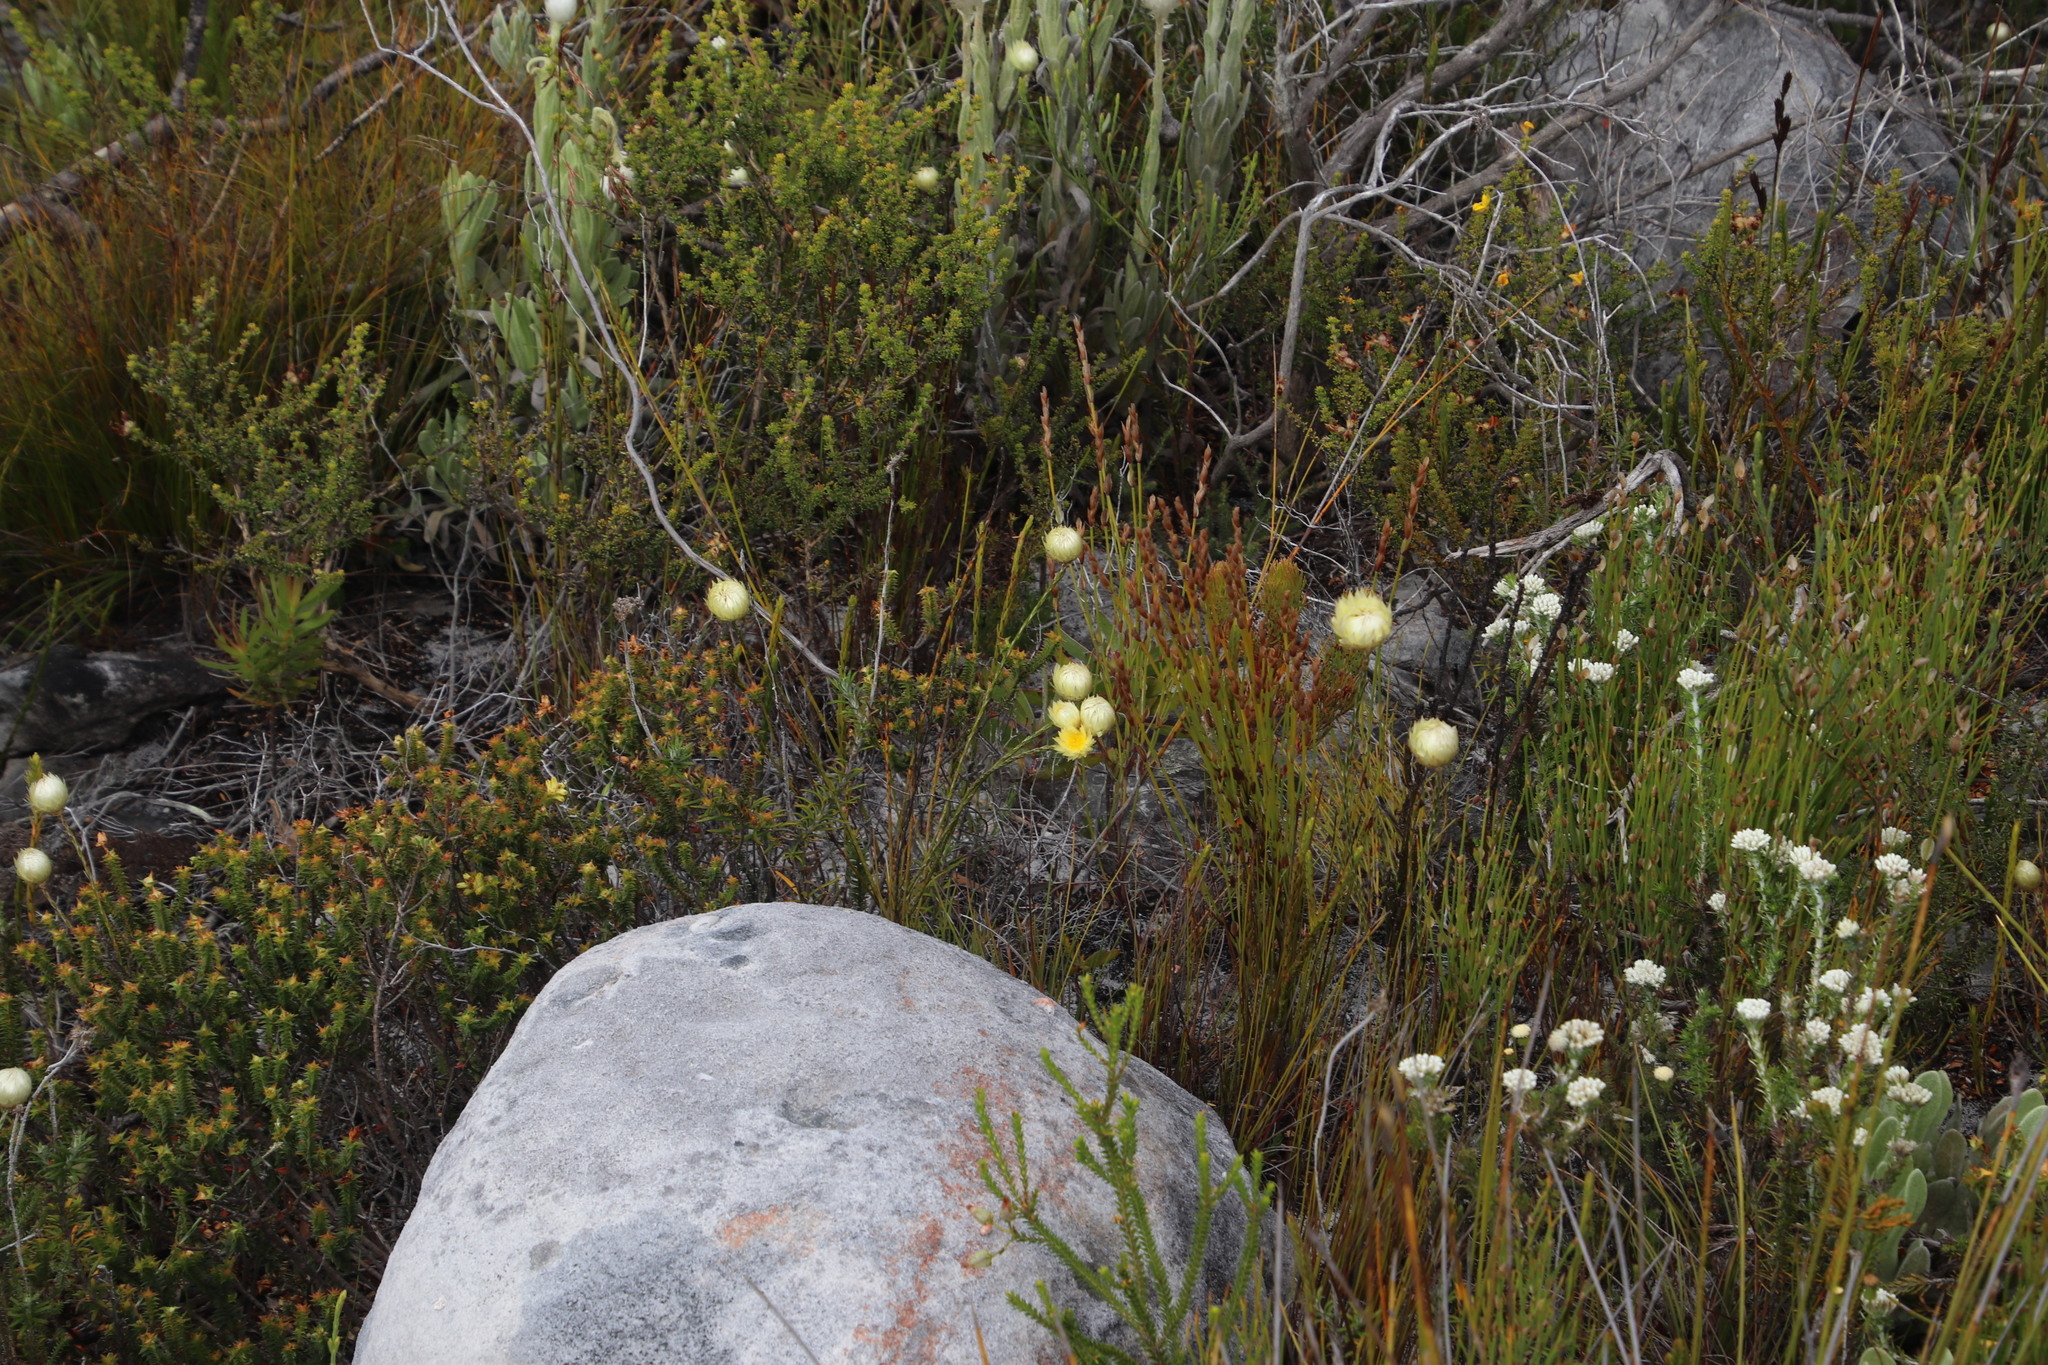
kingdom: Plantae
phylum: Tracheophyta
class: Magnoliopsida
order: Asterales
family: Asteraceae
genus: Edmondia
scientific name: Edmondia sesamoides
